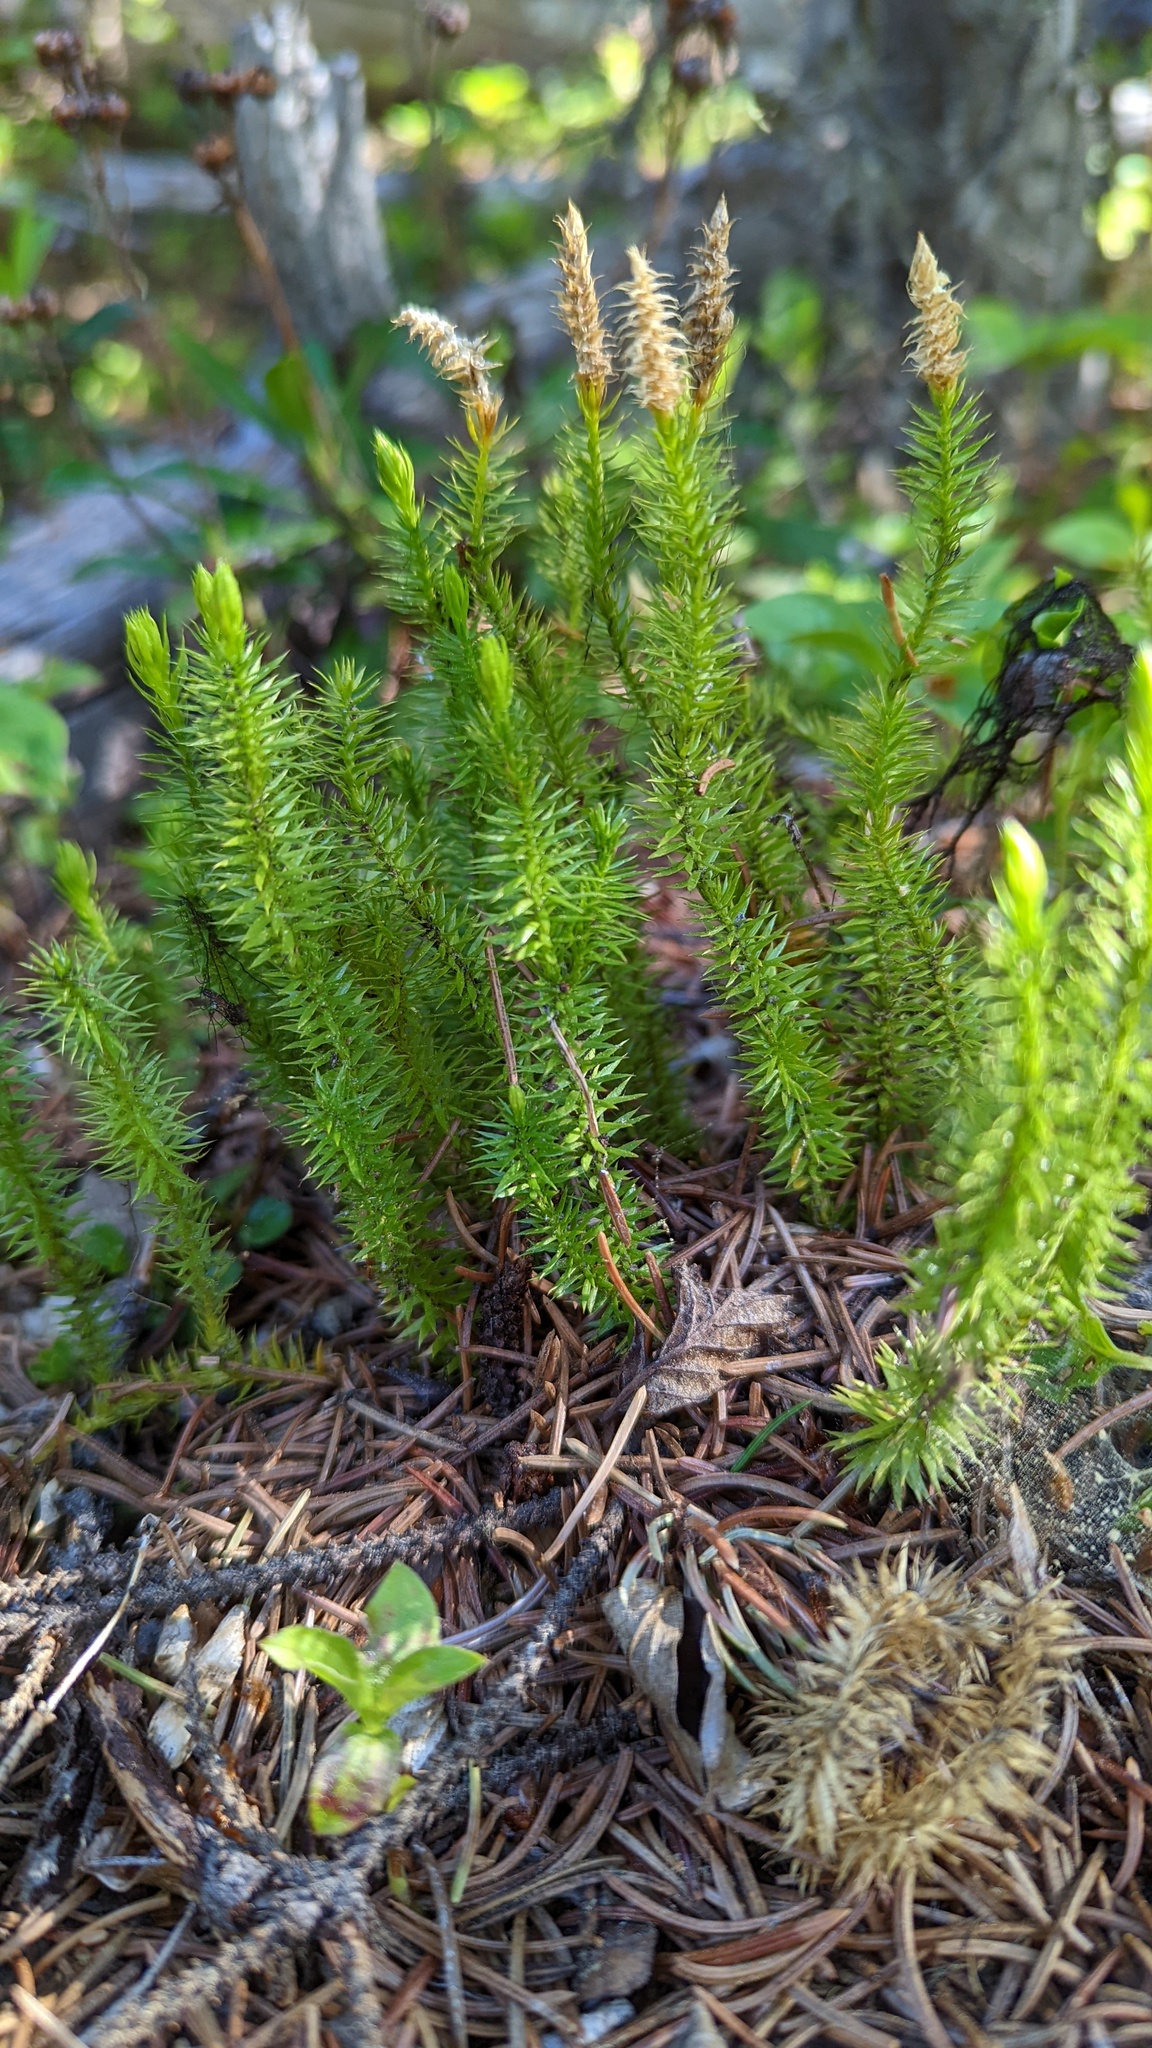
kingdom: Plantae
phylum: Tracheophyta
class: Lycopodiopsida
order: Lycopodiales
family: Lycopodiaceae
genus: Spinulum
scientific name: Spinulum annotinum
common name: Interrupted club-moss
